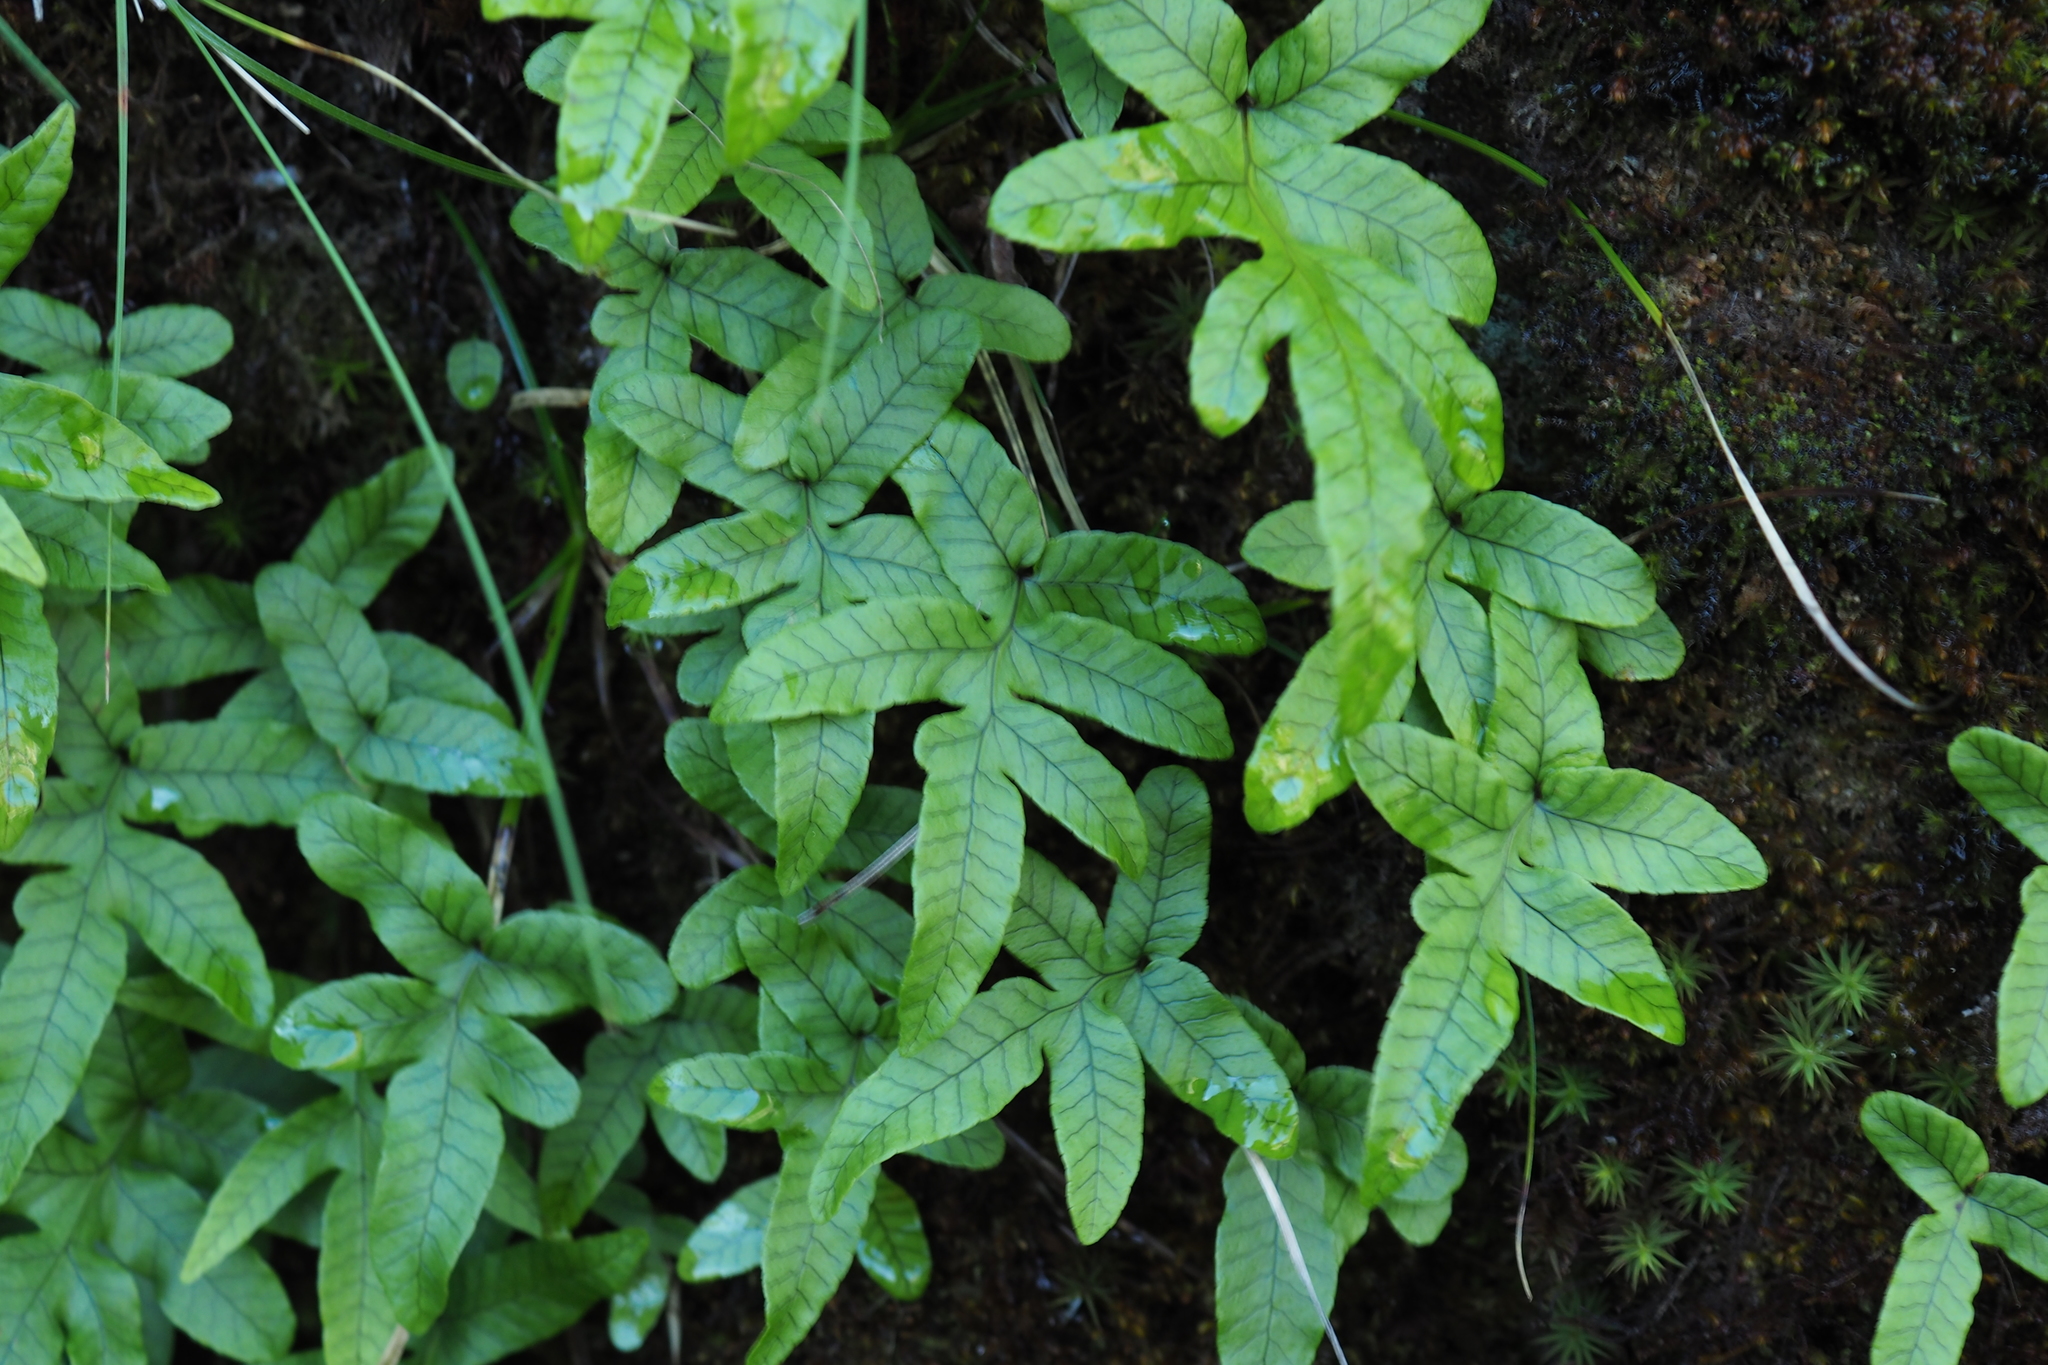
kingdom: Plantae
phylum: Tracheophyta
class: Polypodiopsida
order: Polypodiales
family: Polypodiaceae
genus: Selliguea
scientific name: Selliguea quasidivaricata
